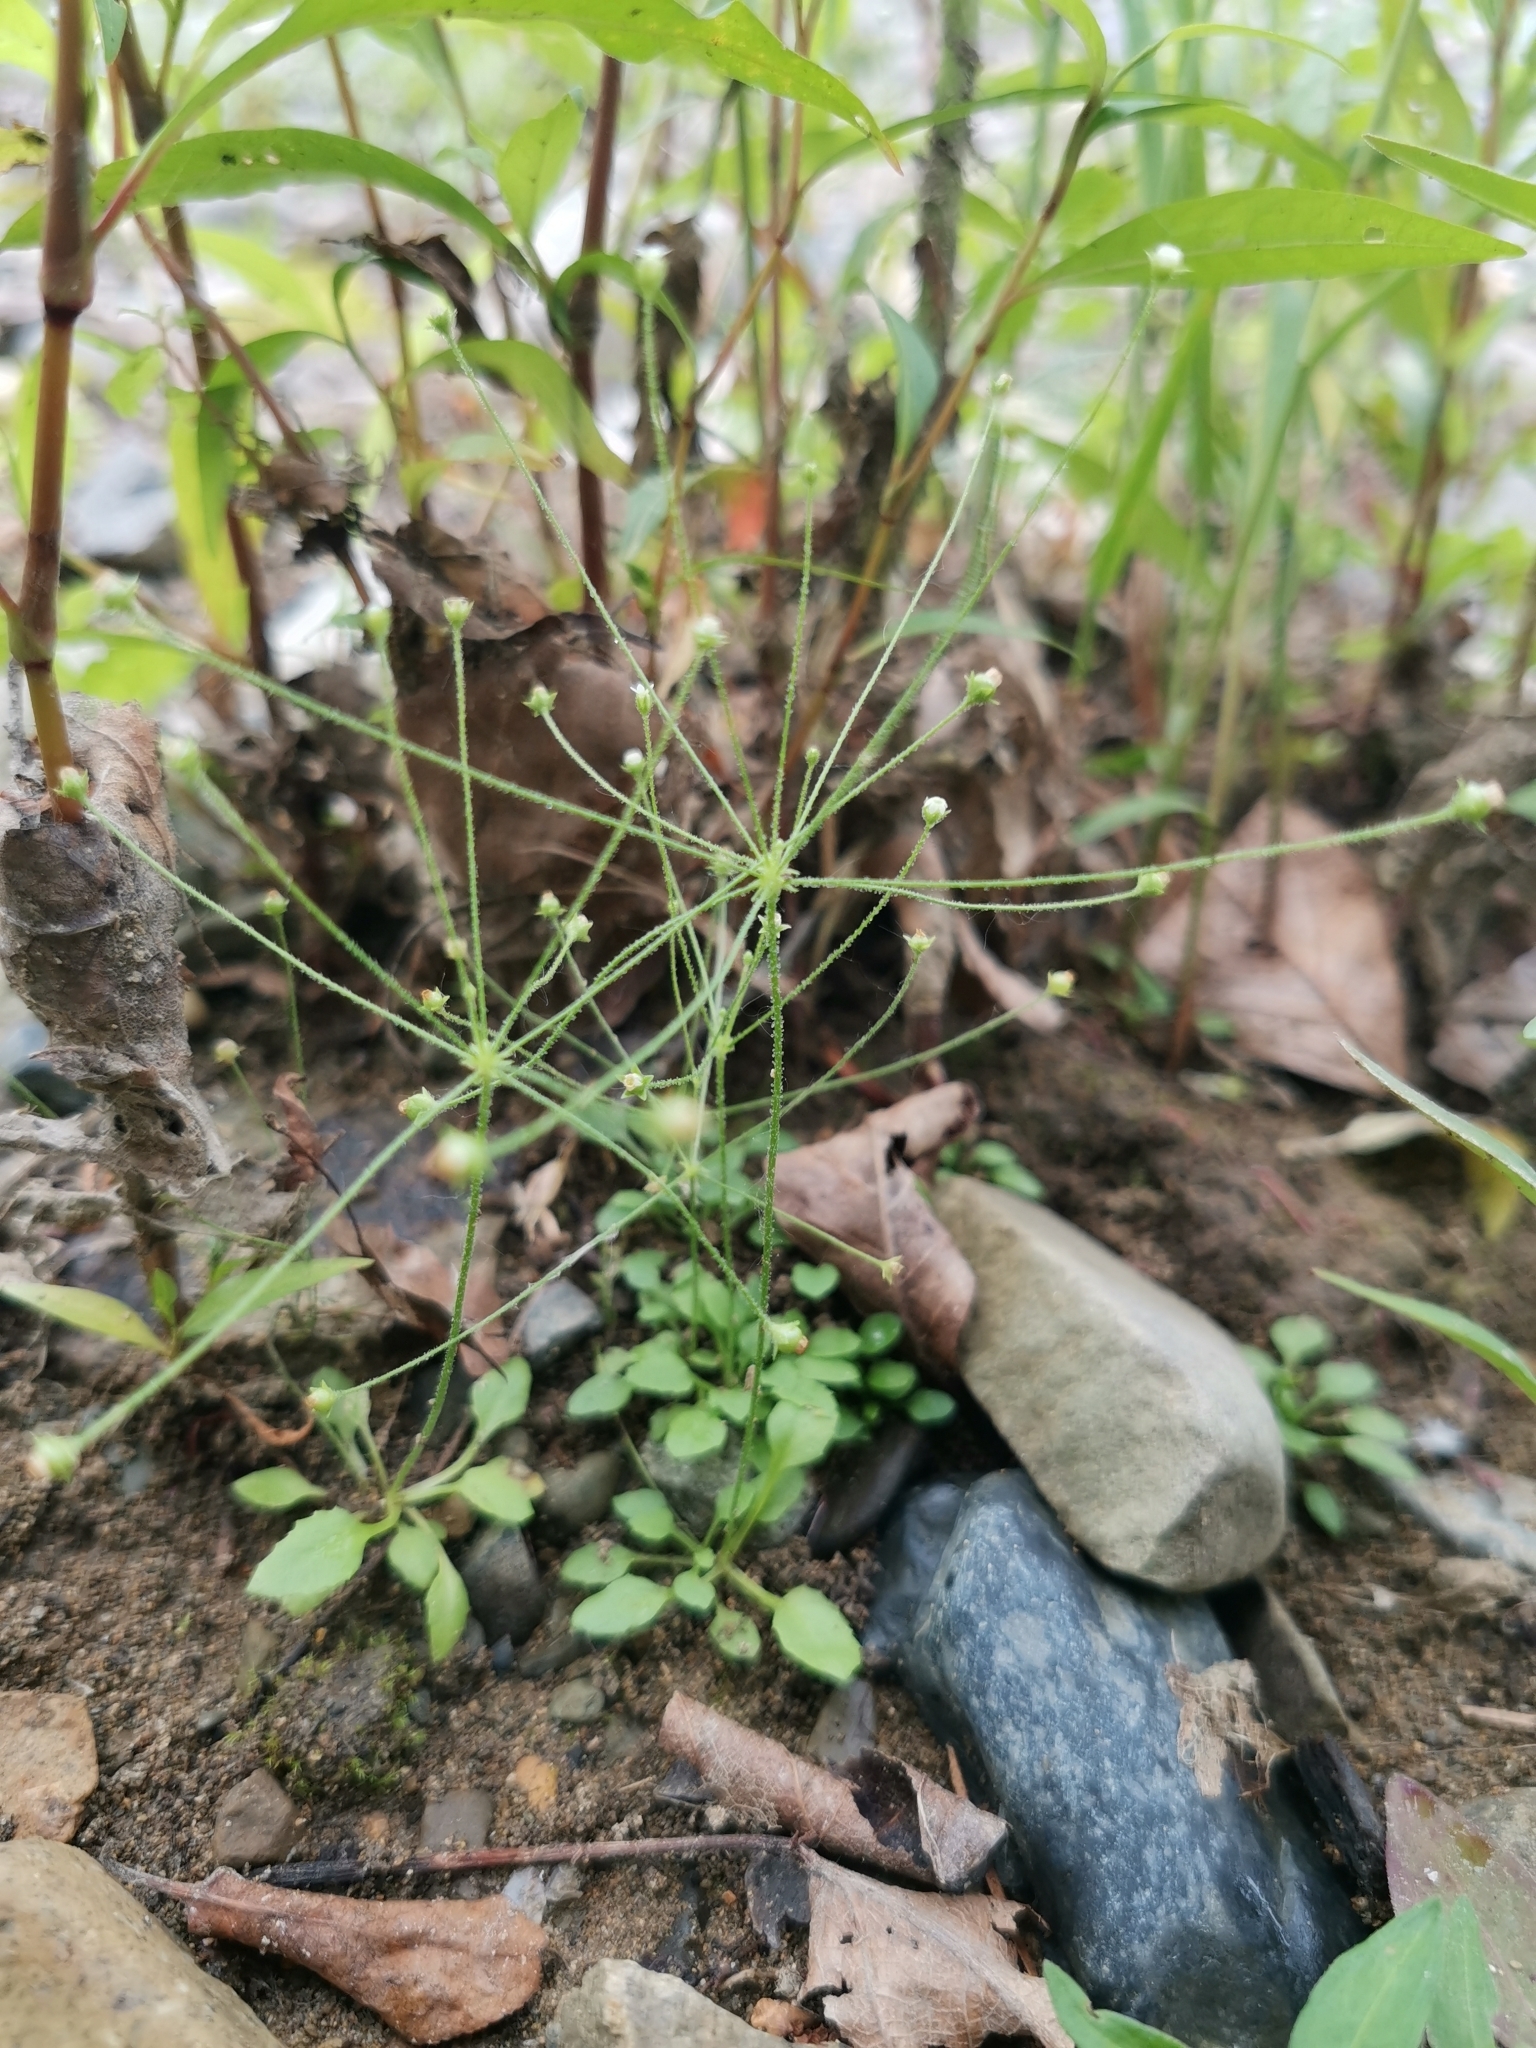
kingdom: Plantae
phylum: Tracheophyta
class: Magnoliopsida
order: Ericales
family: Primulaceae
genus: Androsace
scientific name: Androsace filiformis
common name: Filiform rock jasmine
